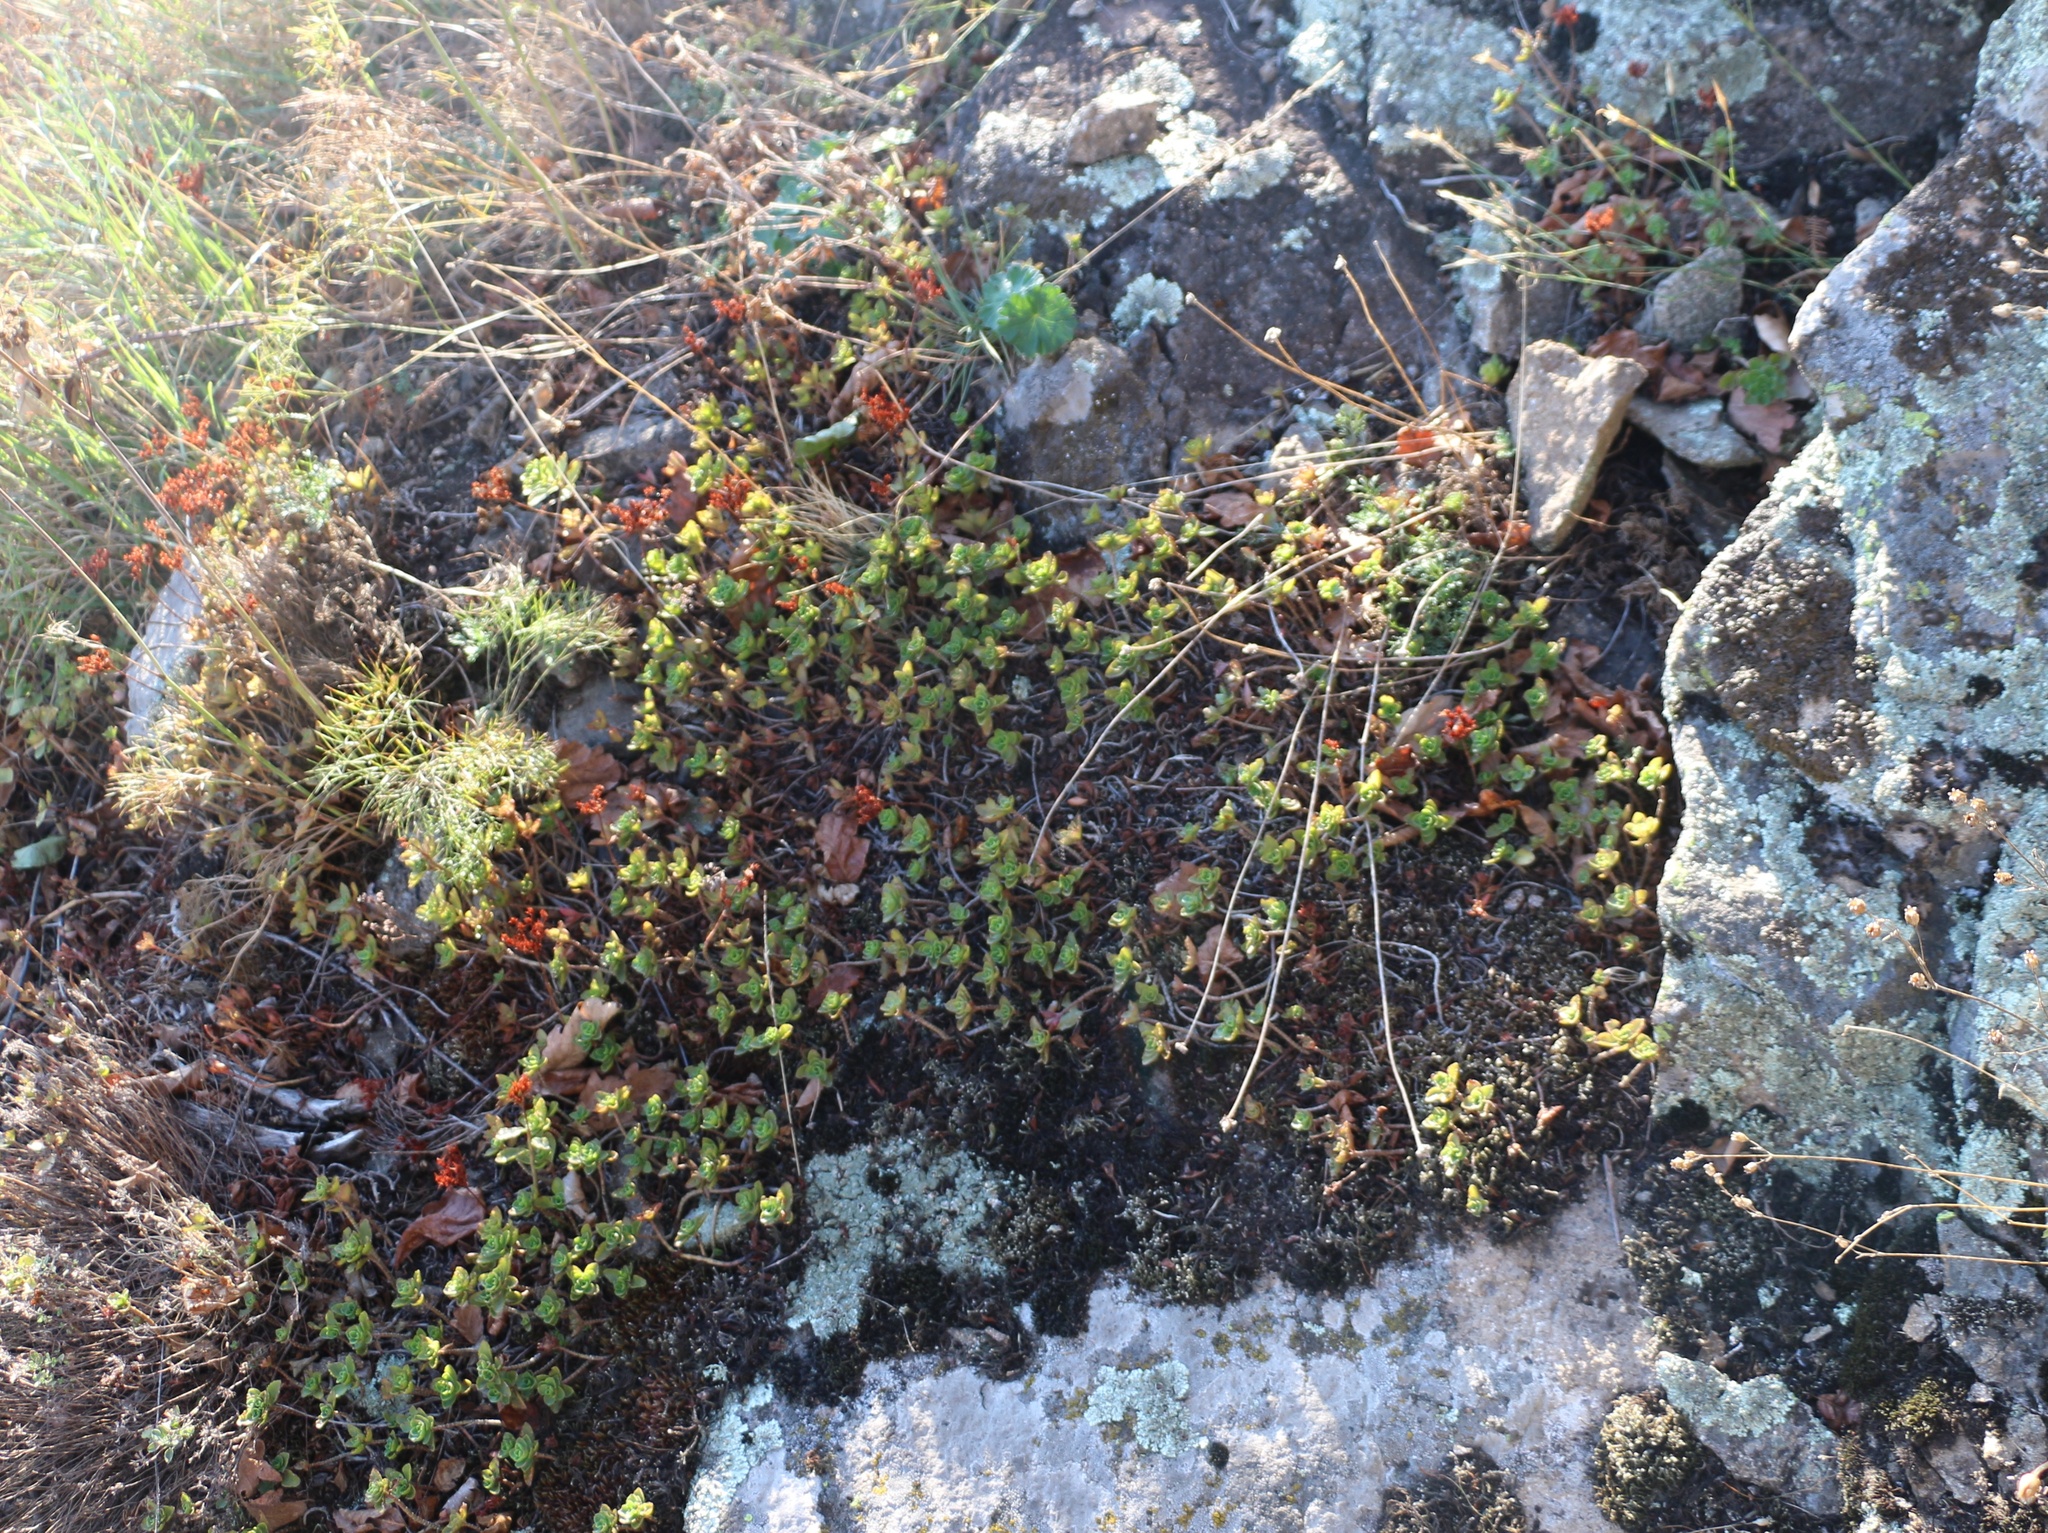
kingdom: Plantae
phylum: Tracheophyta
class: Magnoliopsida
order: Saxifragales
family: Crassulaceae
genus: Phedimus
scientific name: Phedimus spurius
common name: Caucasian stonecrop
